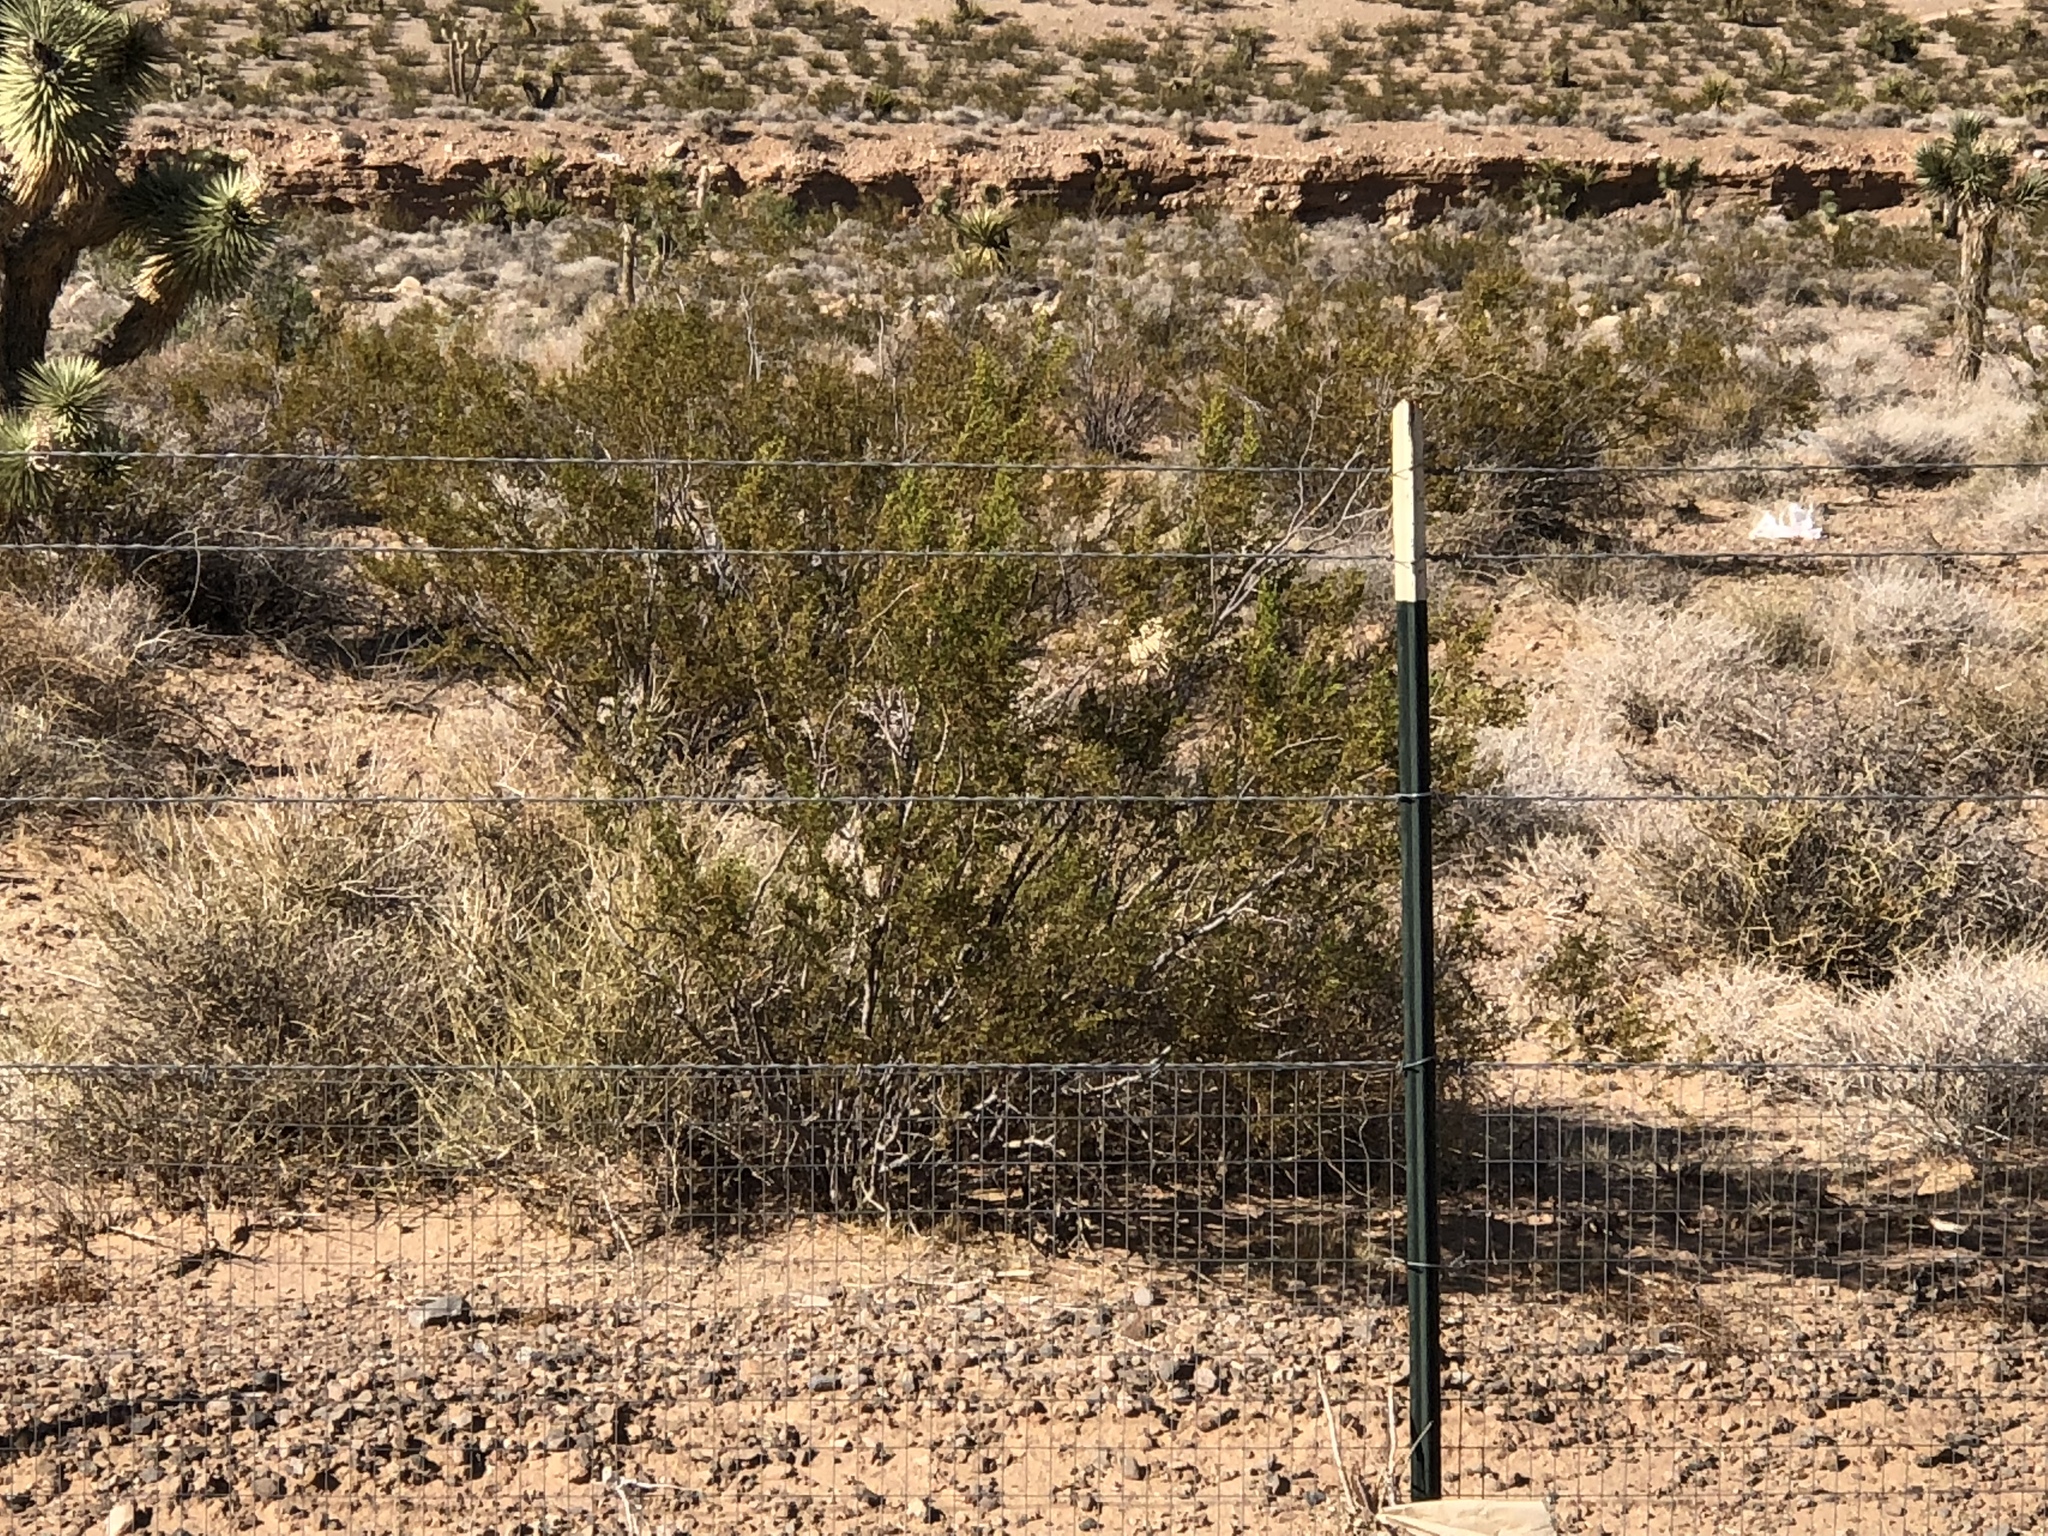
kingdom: Plantae
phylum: Tracheophyta
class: Magnoliopsida
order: Zygophyllales
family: Zygophyllaceae
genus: Larrea
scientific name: Larrea tridentata
